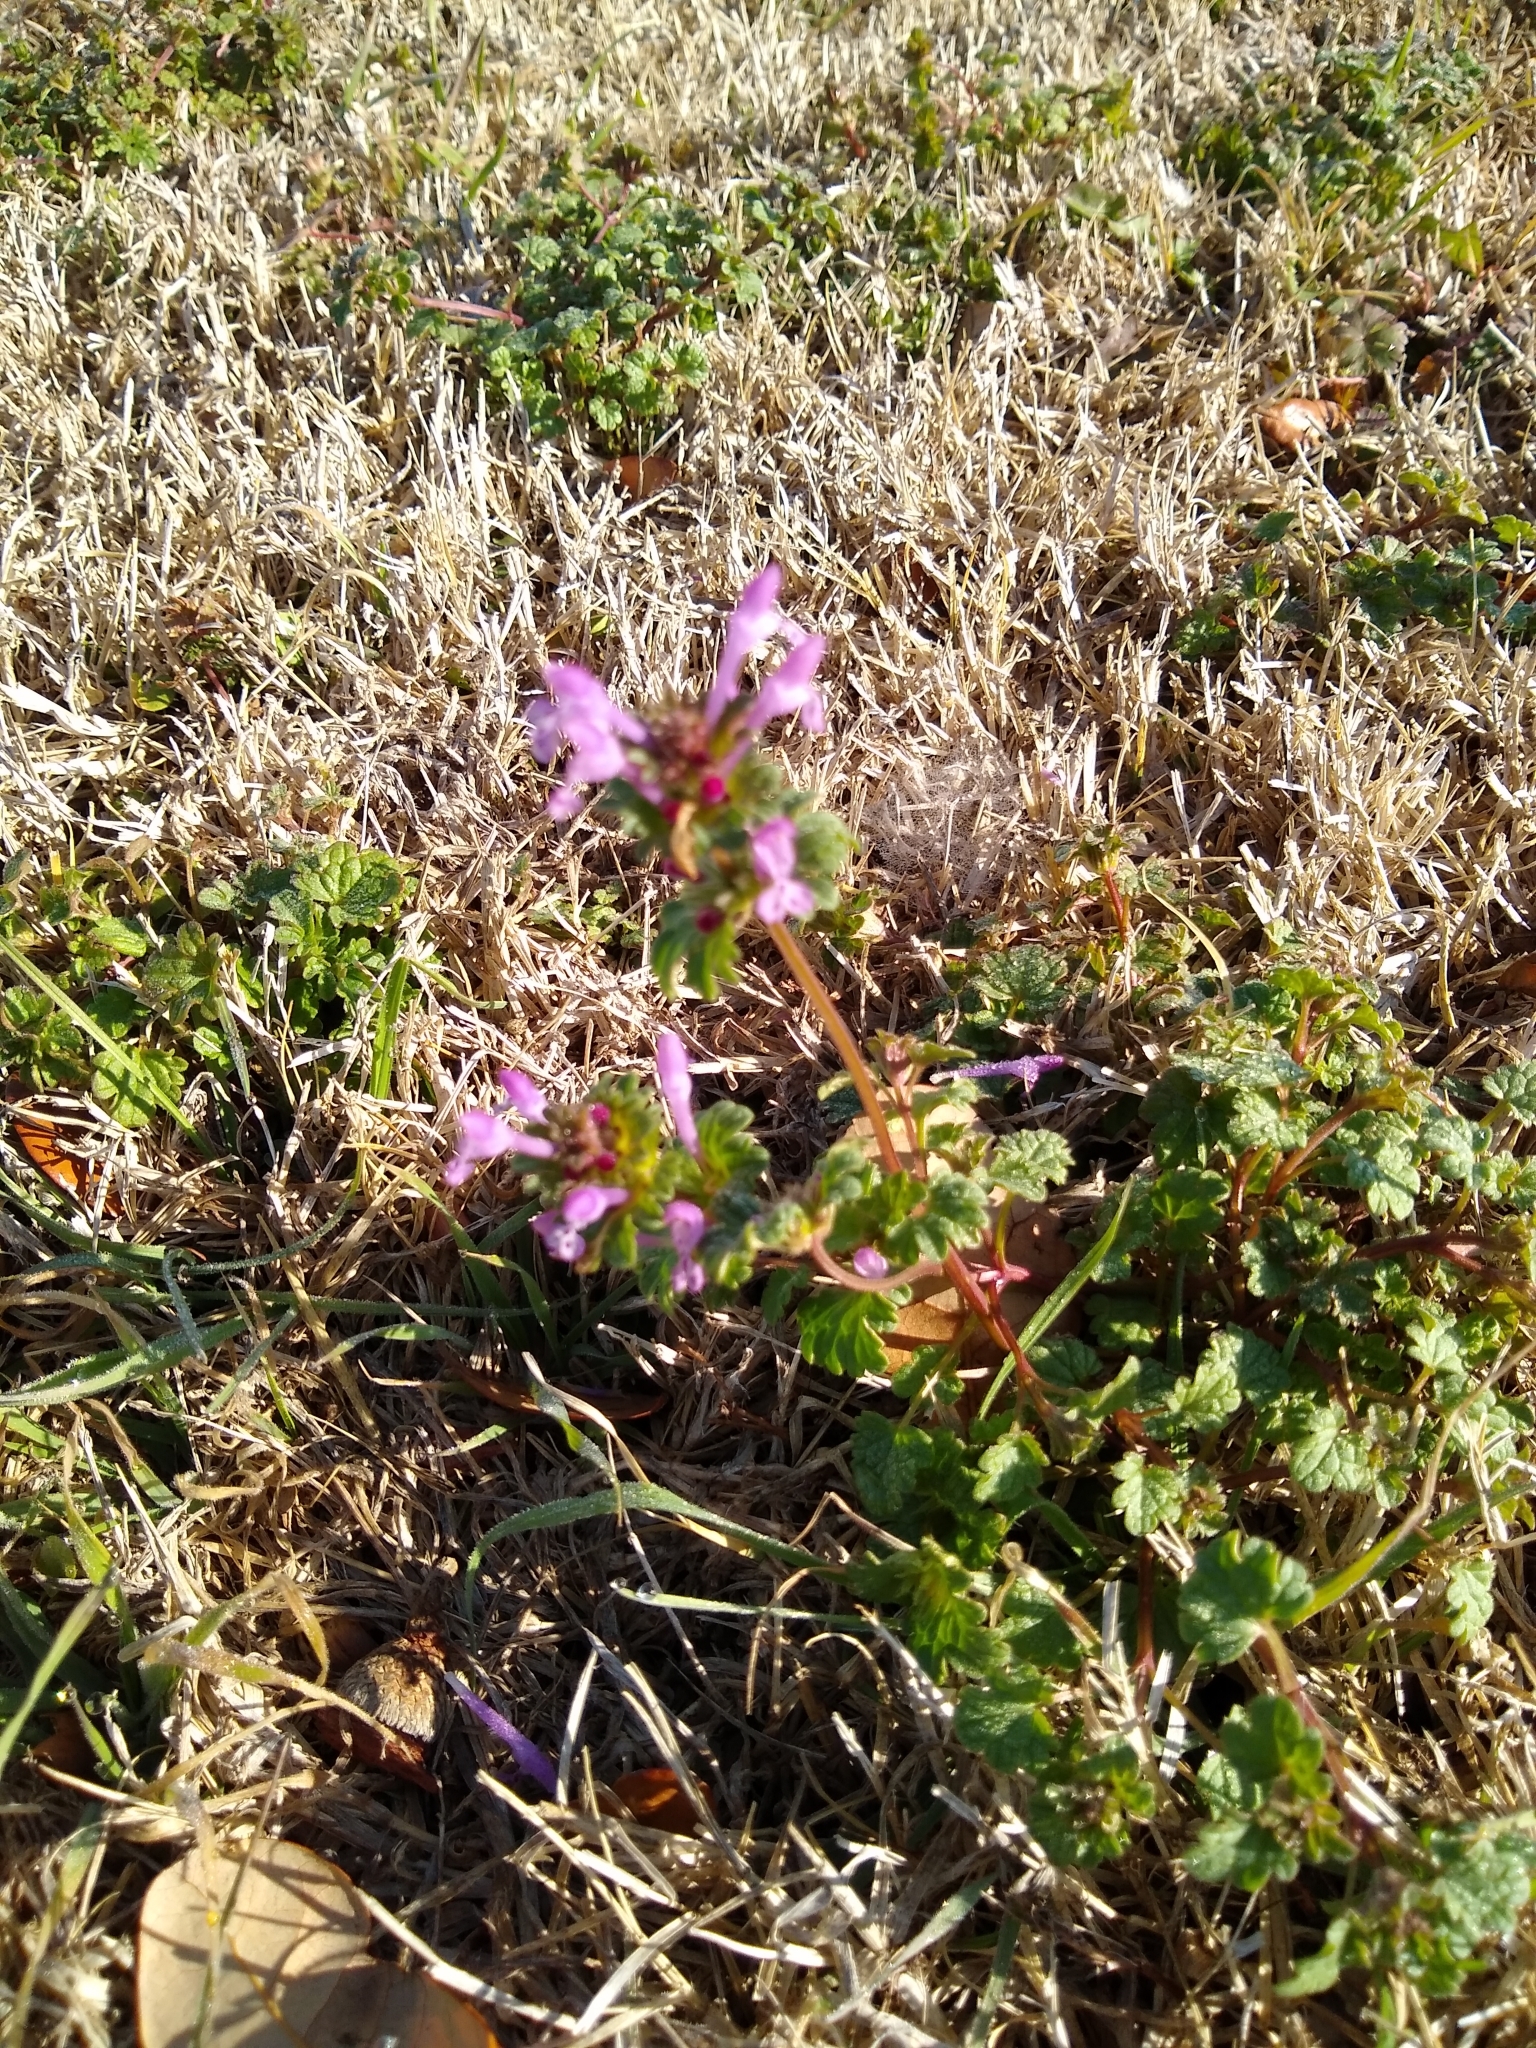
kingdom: Plantae
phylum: Tracheophyta
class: Magnoliopsida
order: Lamiales
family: Lamiaceae
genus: Lamium
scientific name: Lamium amplexicaule
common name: Henbit dead-nettle
